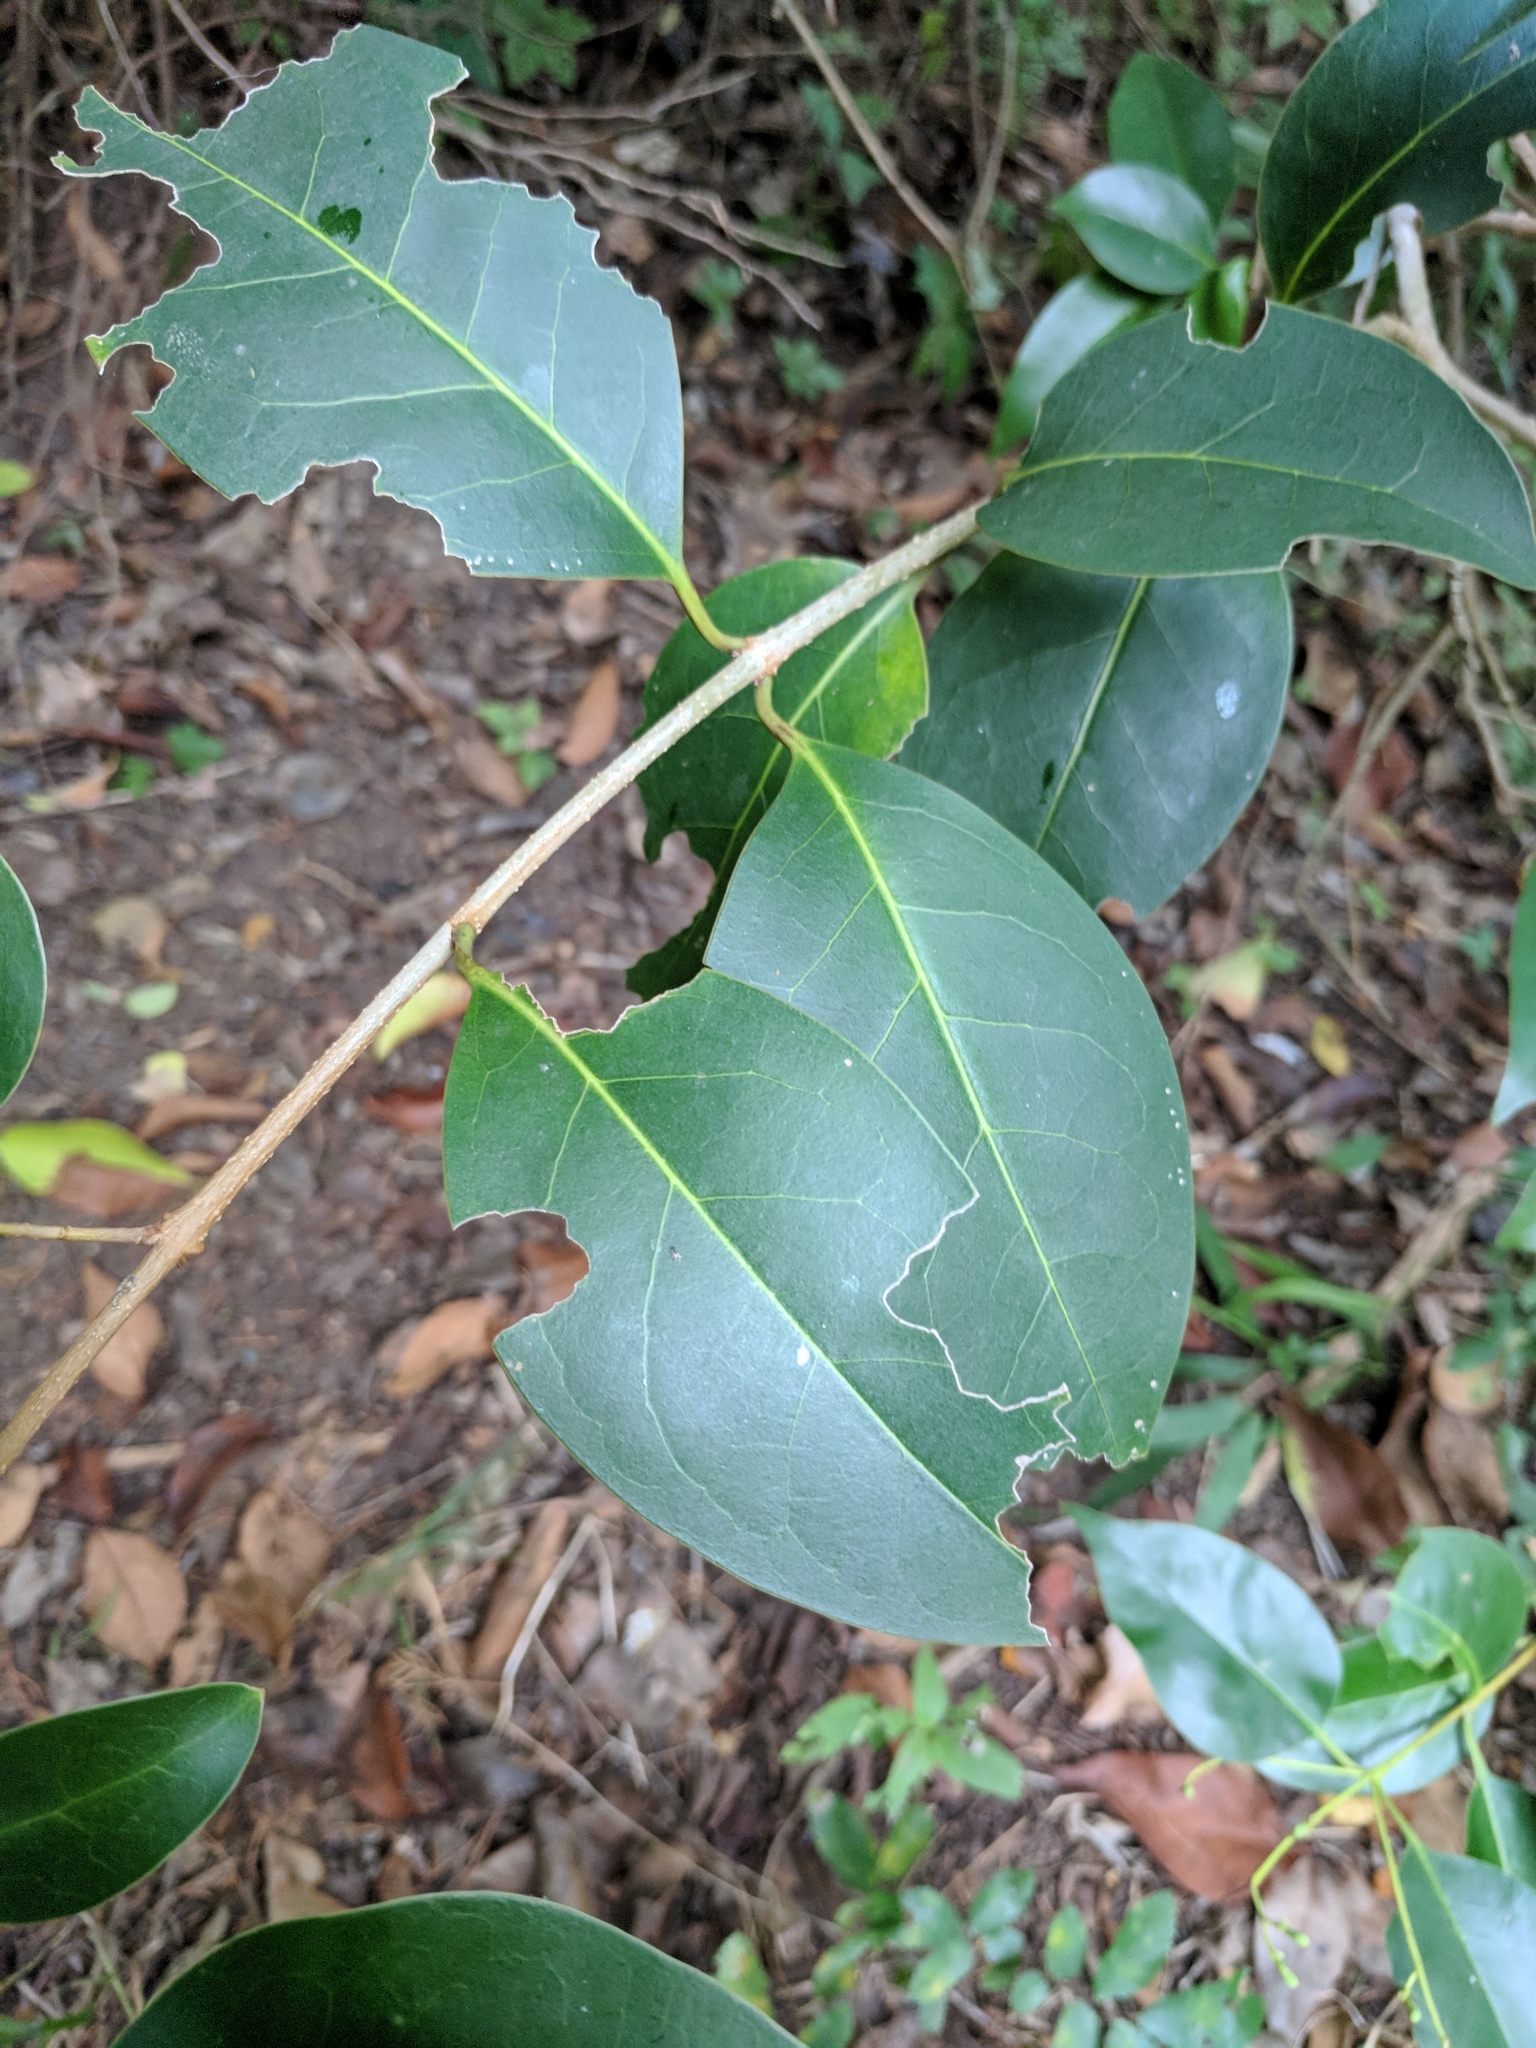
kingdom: Plantae
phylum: Tracheophyta
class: Magnoliopsida
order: Lamiales
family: Oleaceae
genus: Ligustrum
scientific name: Ligustrum lucidum
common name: Glossy privet
